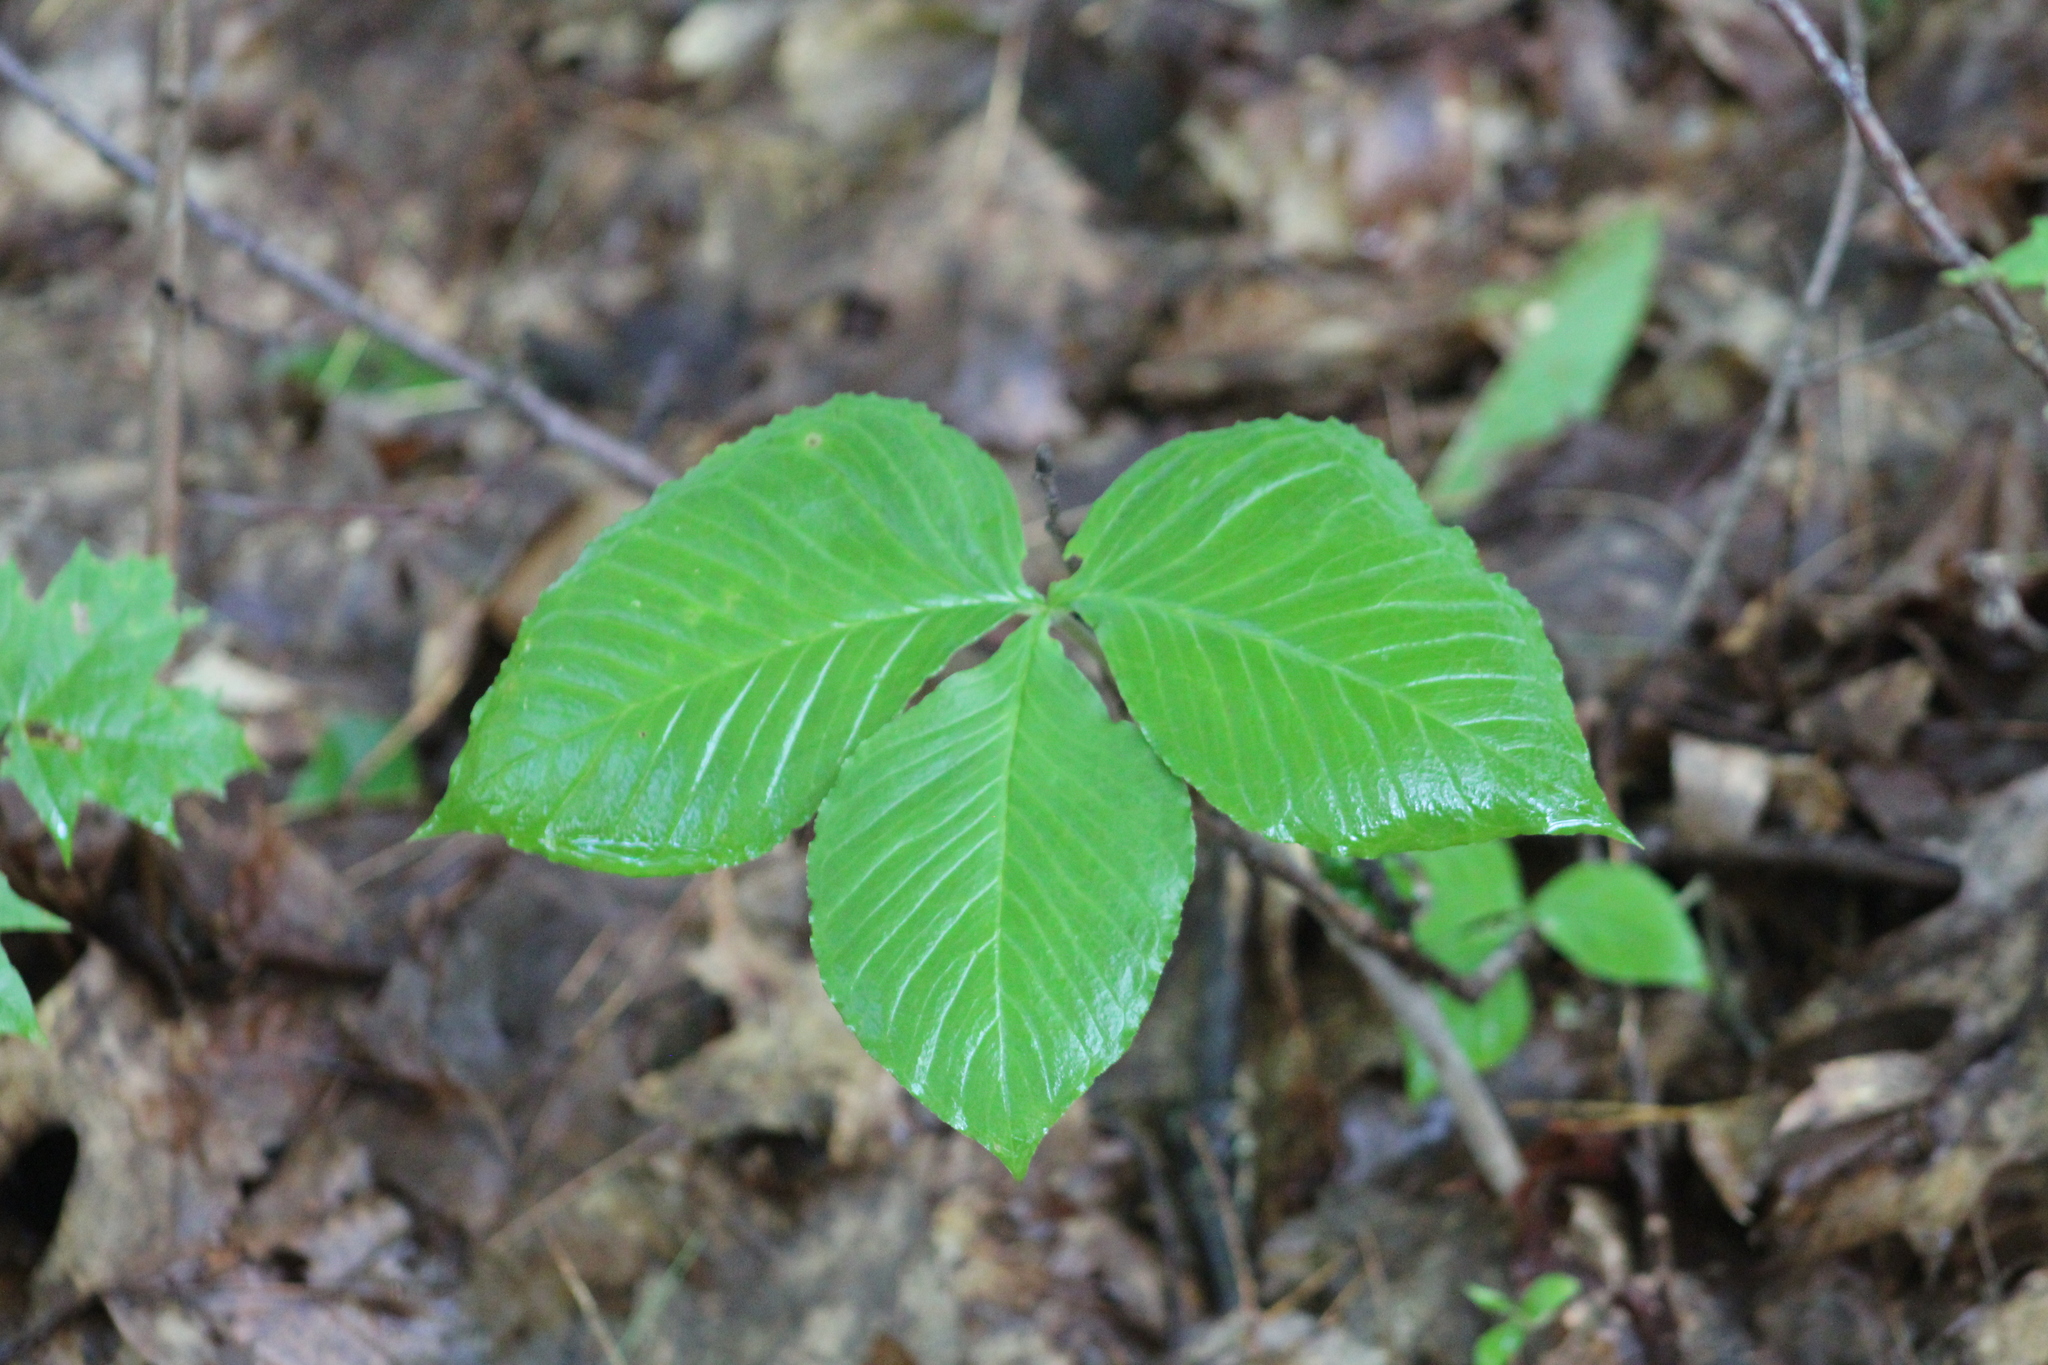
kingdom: Plantae
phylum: Tracheophyta
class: Liliopsida
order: Alismatales
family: Araceae
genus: Arisaema
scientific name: Arisaema triphyllum
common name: Jack-in-the-pulpit
